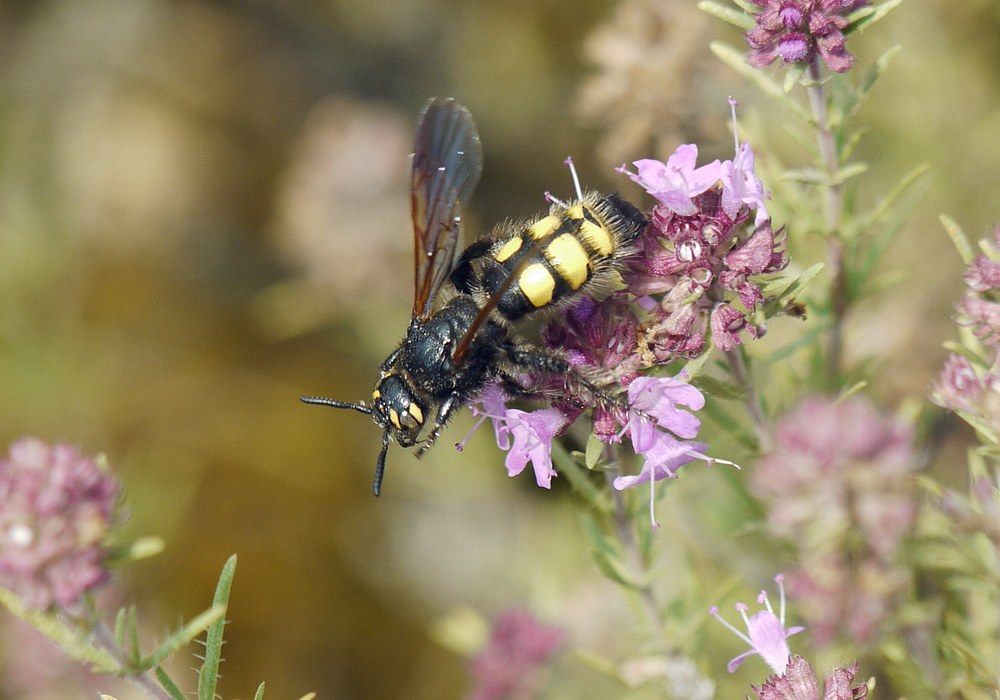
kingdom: Animalia
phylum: Arthropoda
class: Insecta
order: Hymenoptera
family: Vespidae
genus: Vespa
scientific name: Vespa sexmaculata
